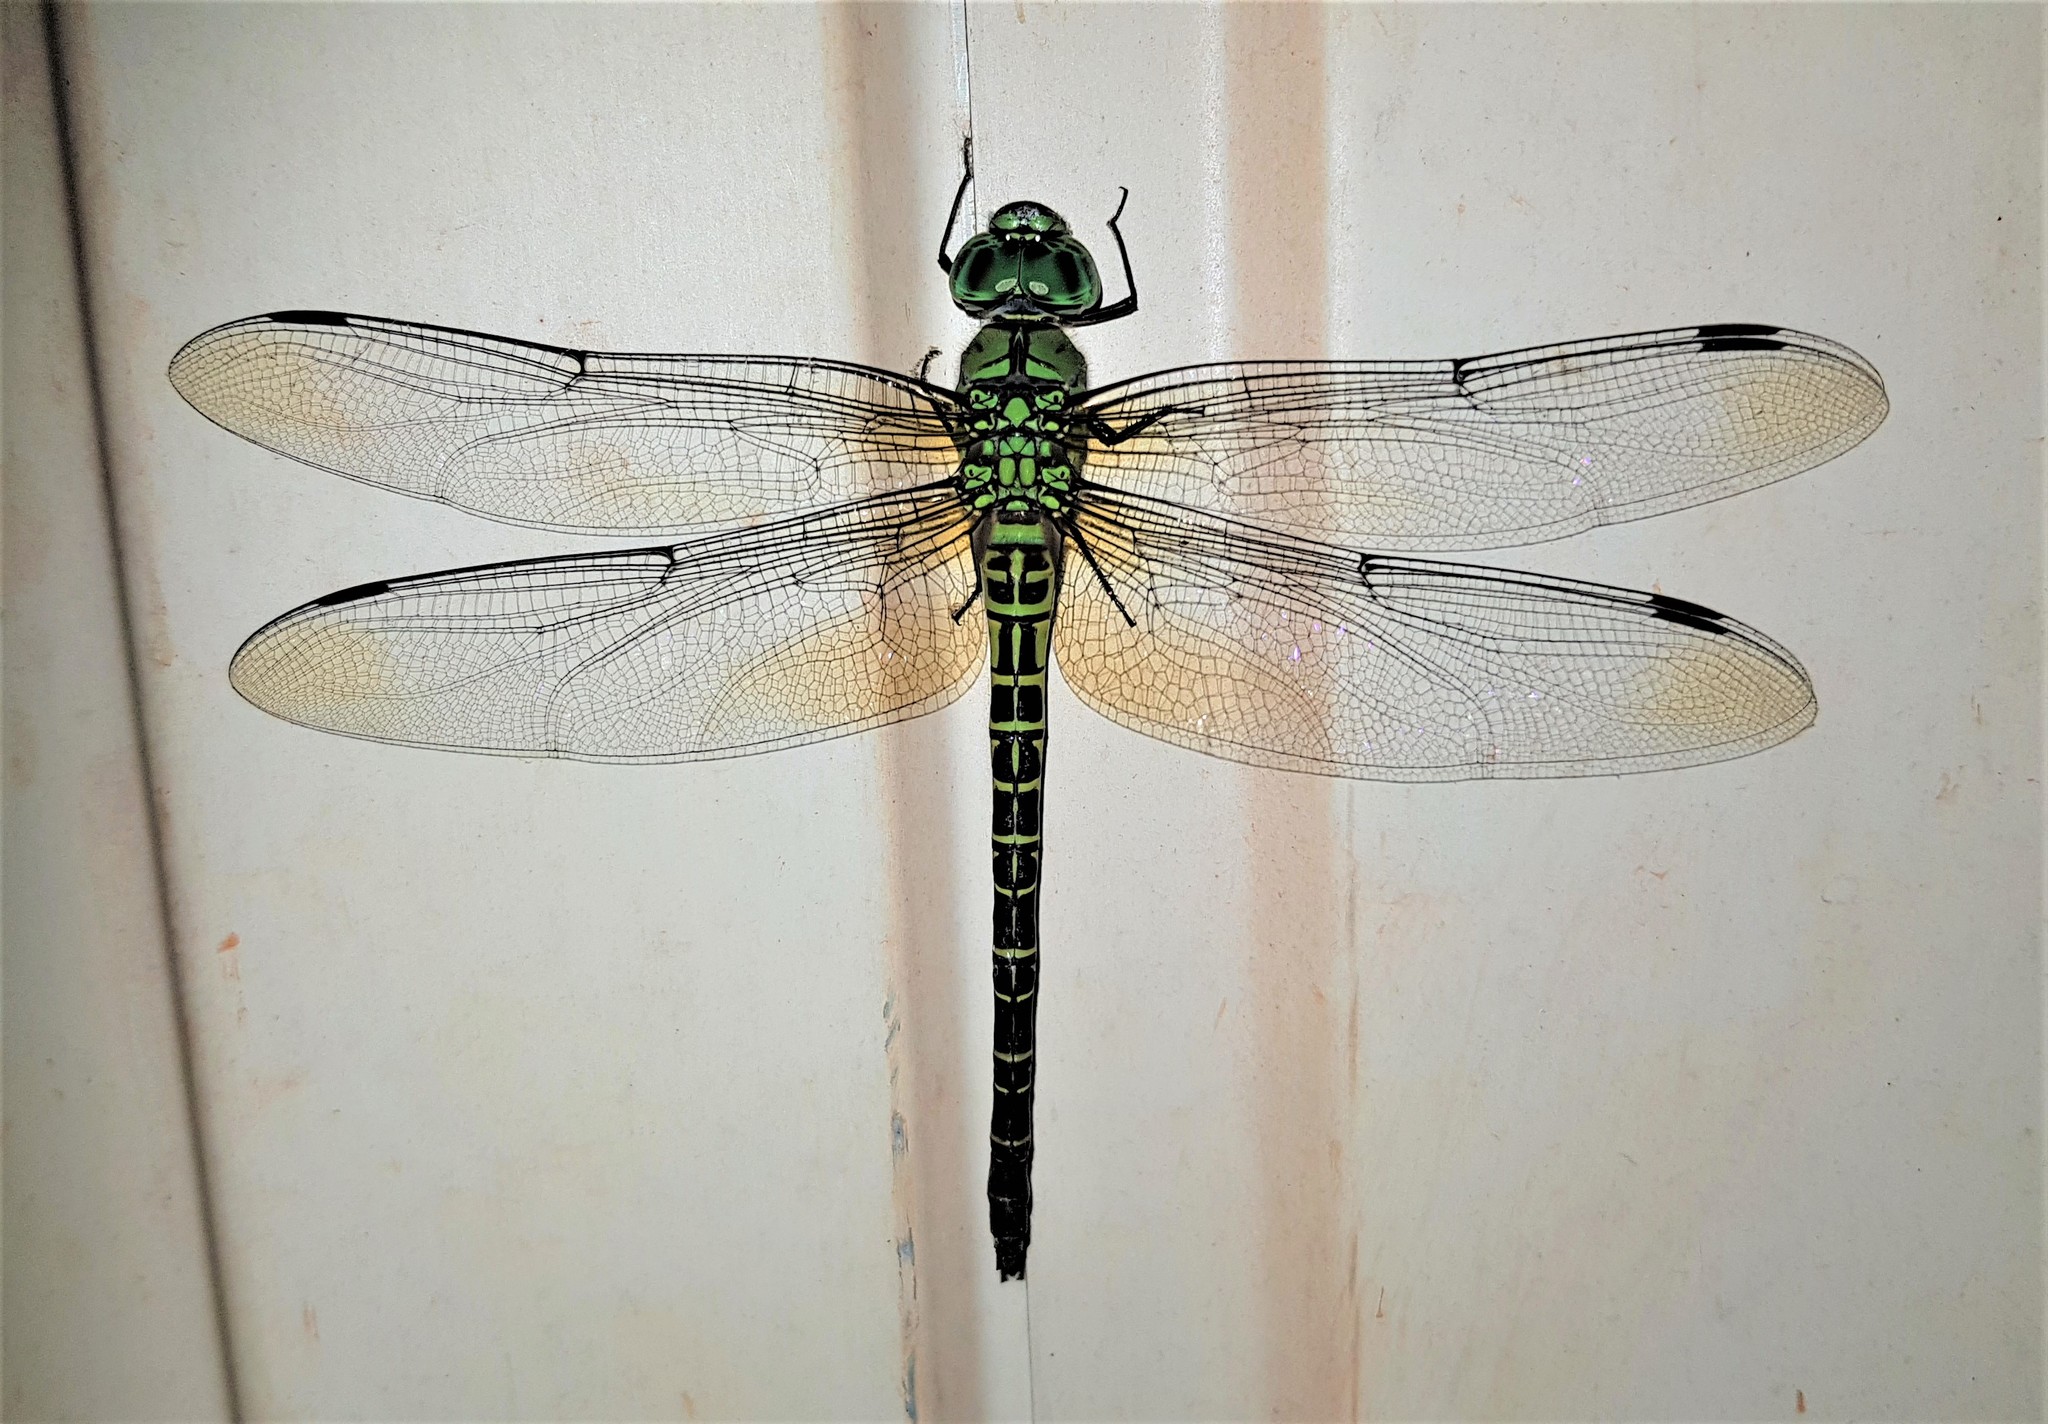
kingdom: Animalia
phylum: Arthropoda
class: Insecta
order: Odonata
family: Aeshnidae
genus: Coryphaeschna
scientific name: Coryphaeschna viriditas
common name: Mangrove darner
